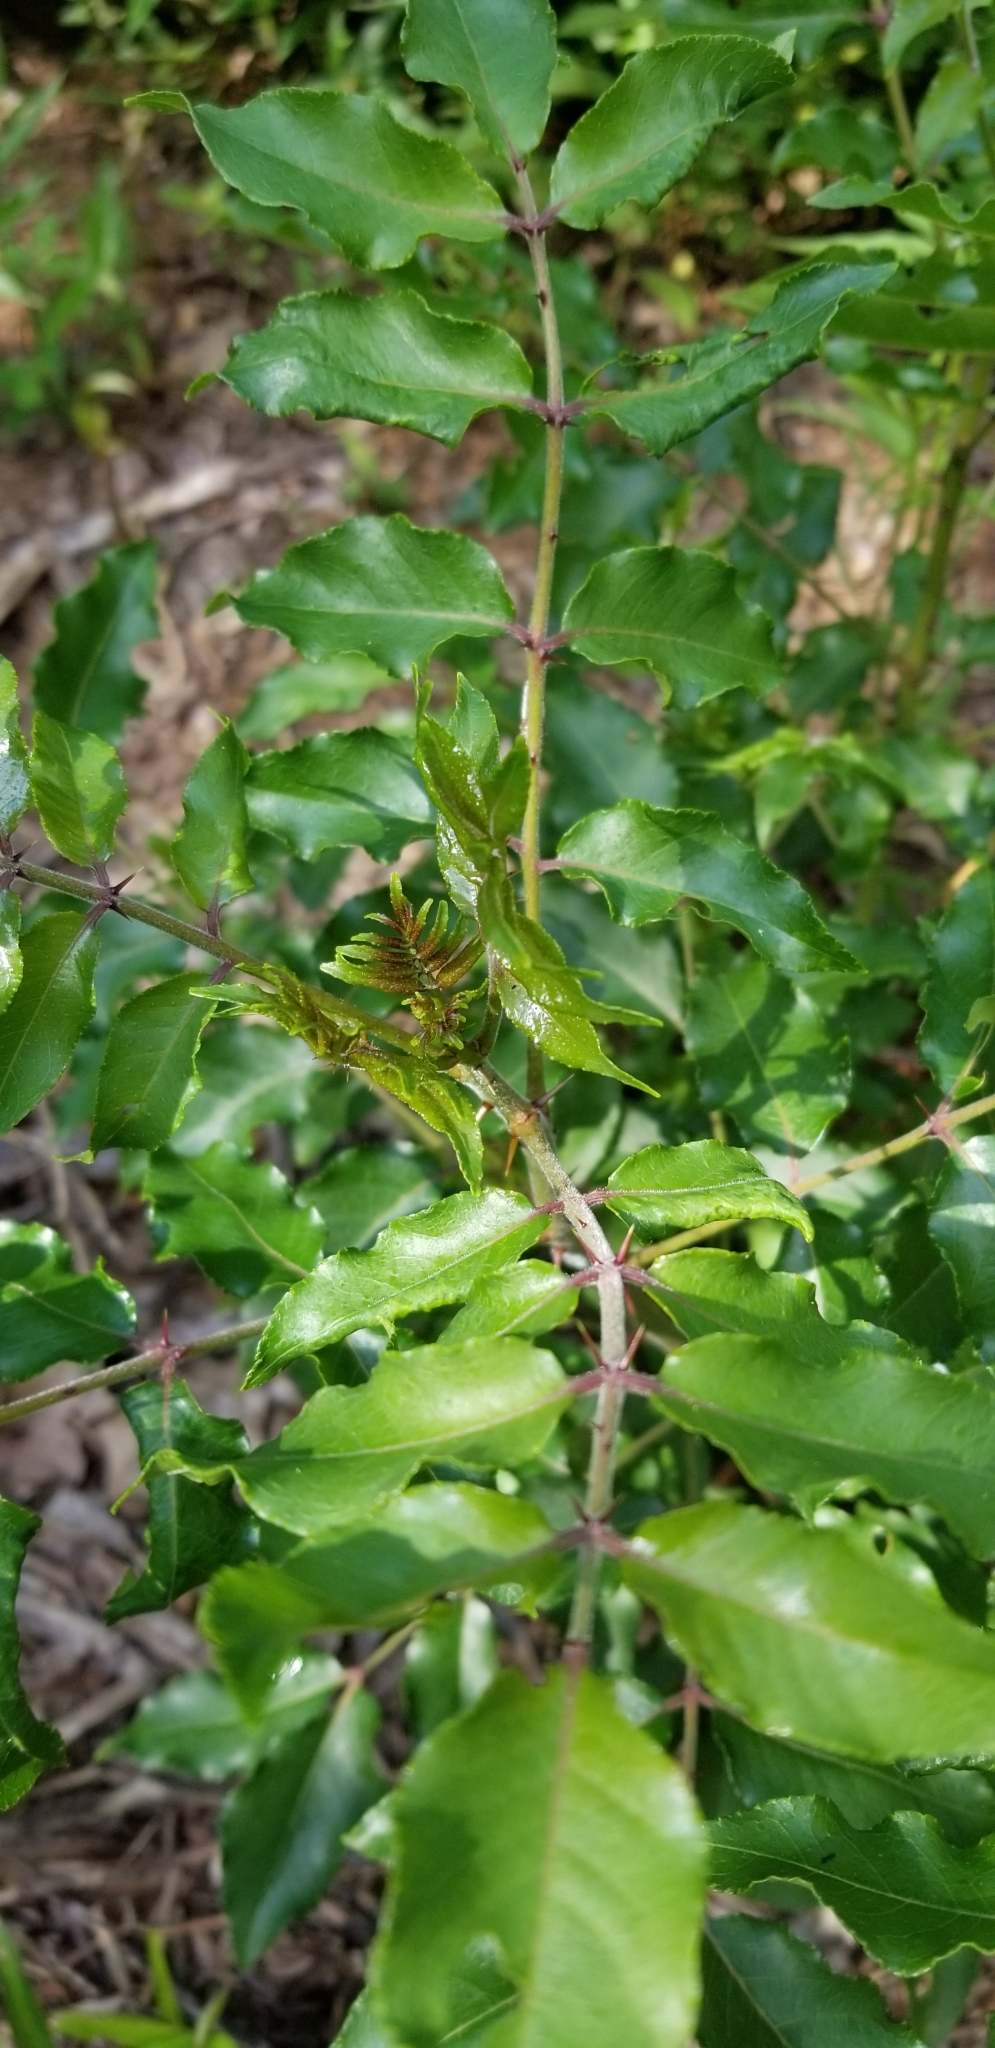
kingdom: Plantae
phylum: Tracheophyta
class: Magnoliopsida
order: Sapindales
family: Rutaceae
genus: Zanthoxylum
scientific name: Zanthoxylum clava-herculis
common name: Hercules'-club
